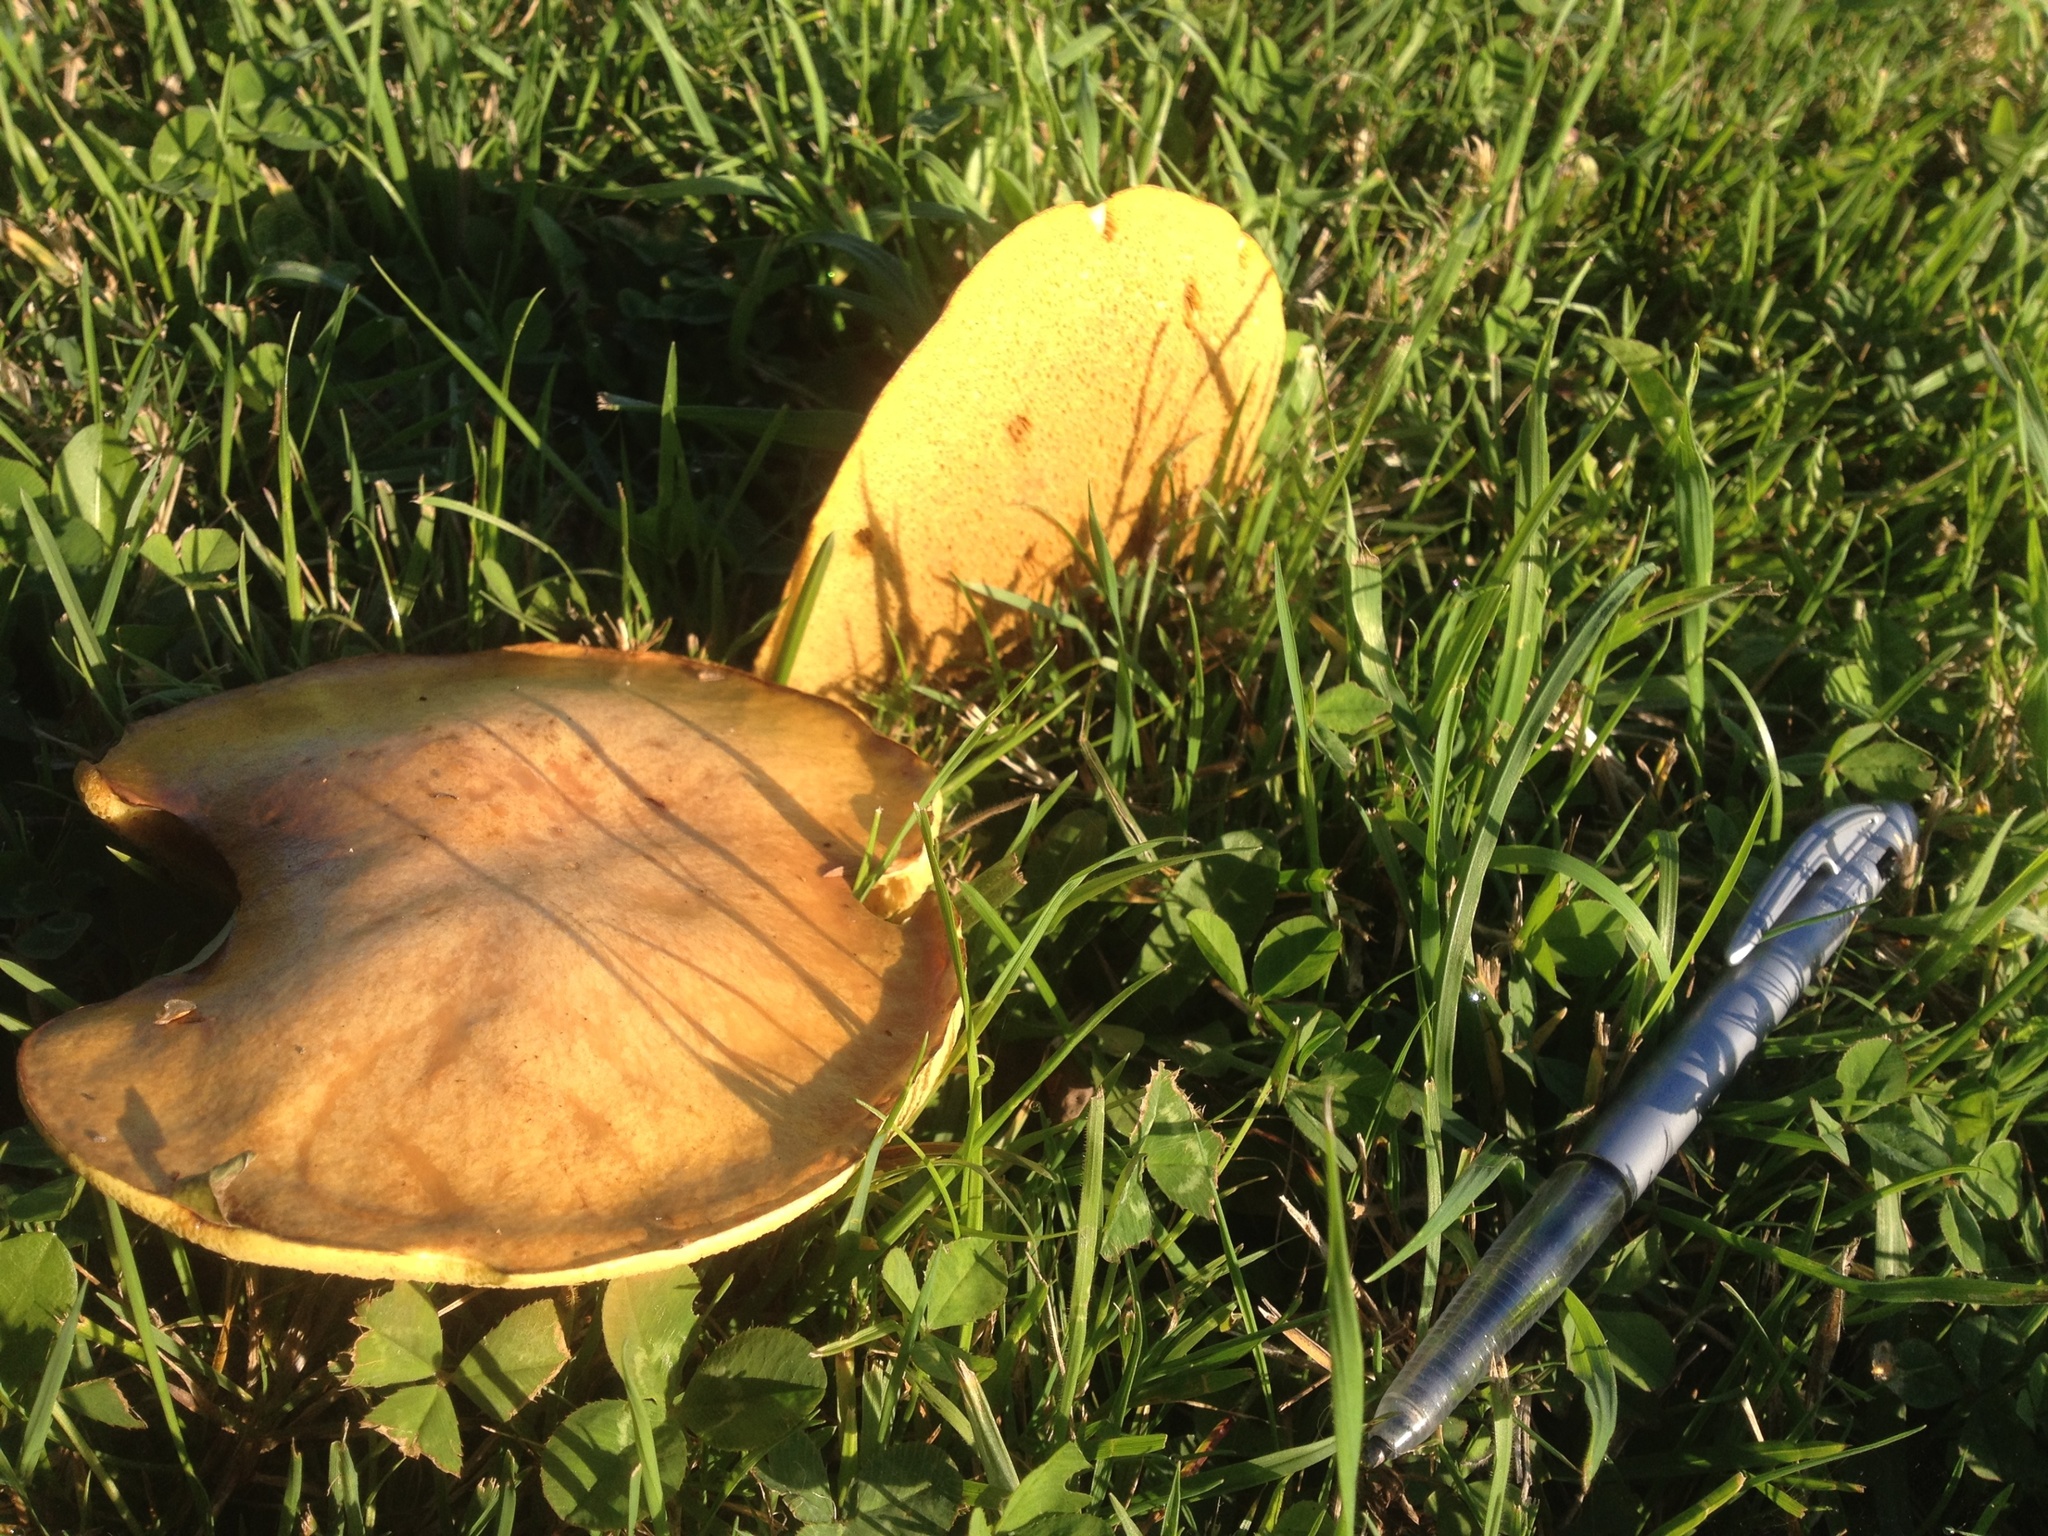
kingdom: Fungi
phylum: Basidiomycota
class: Agaricomycetes
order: Boletales
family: Suillaceae
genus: Suillus
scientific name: Suillus granulatus
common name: Weeping bolete
